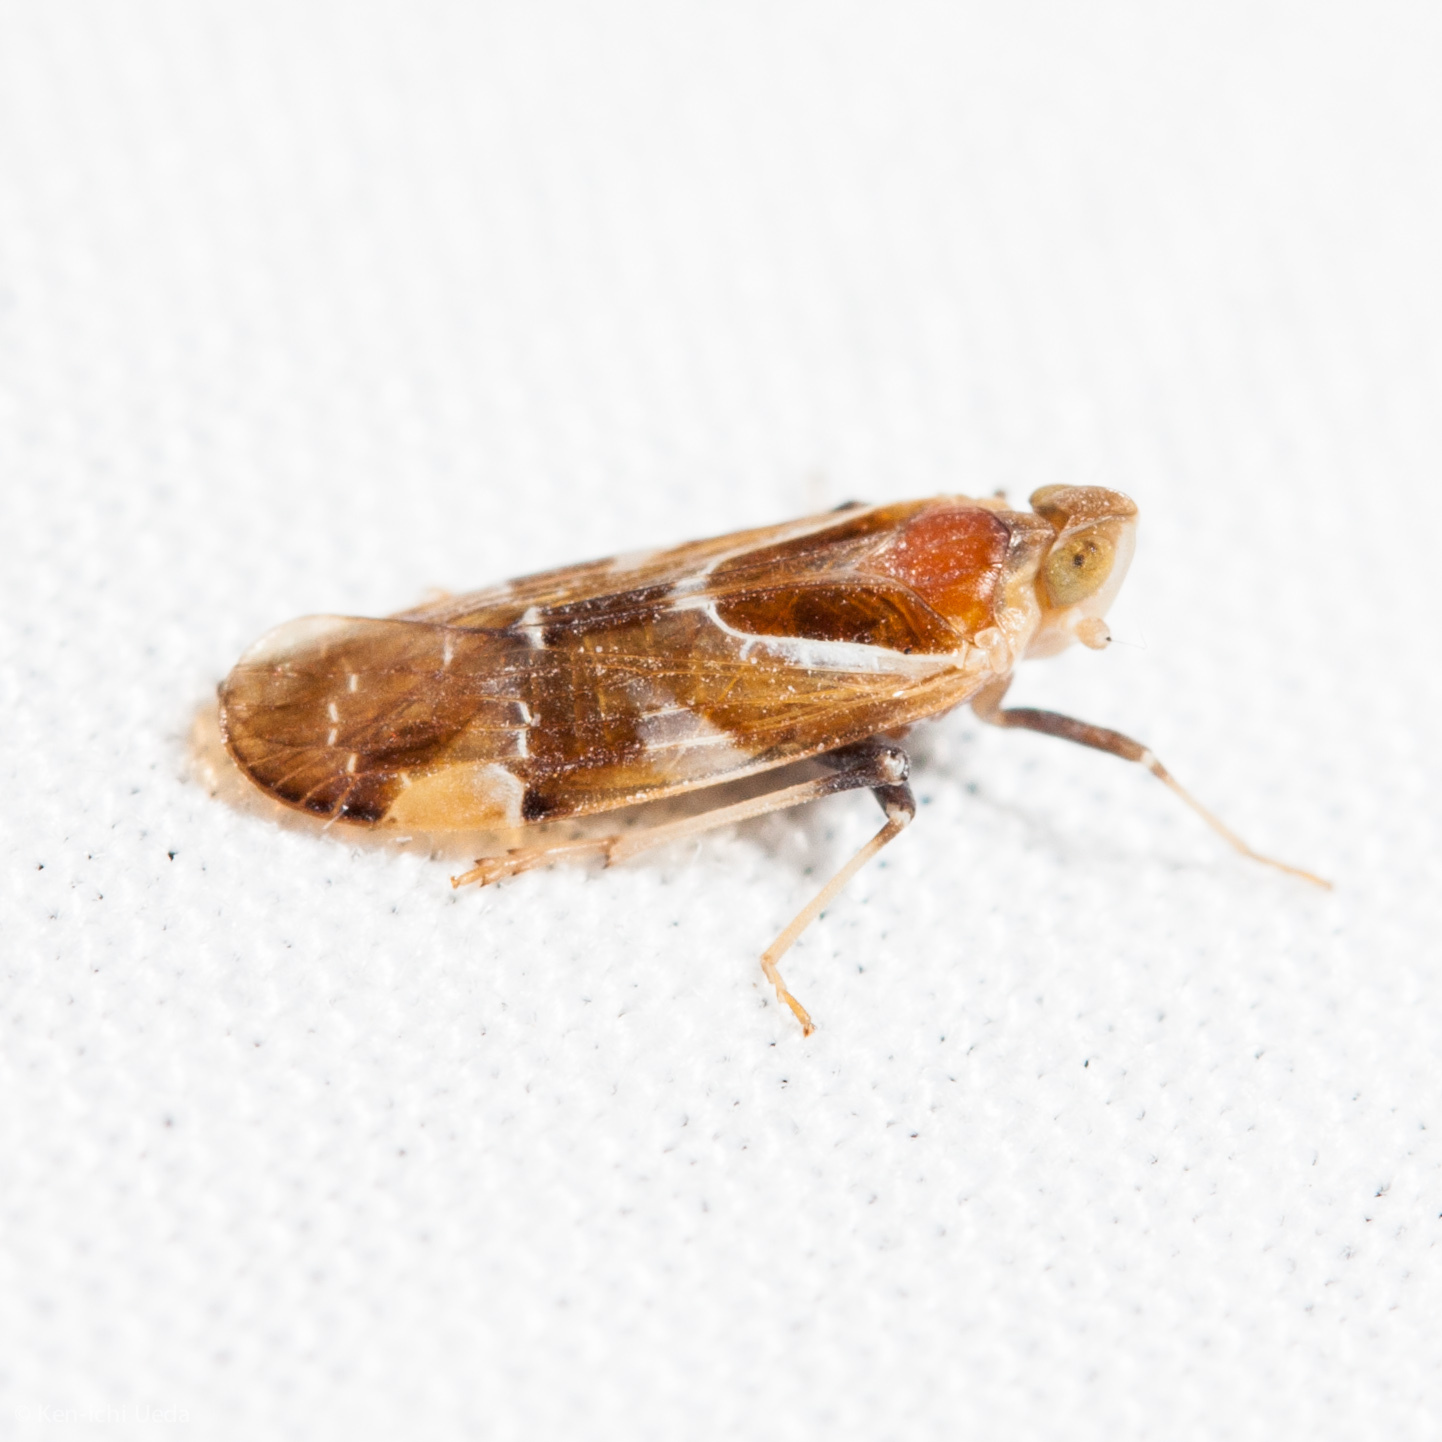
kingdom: Animalia
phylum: Arthropoda
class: Insecta
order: Hemiptera
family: Achilidae
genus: Juniperthia
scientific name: Juniperthia producta
